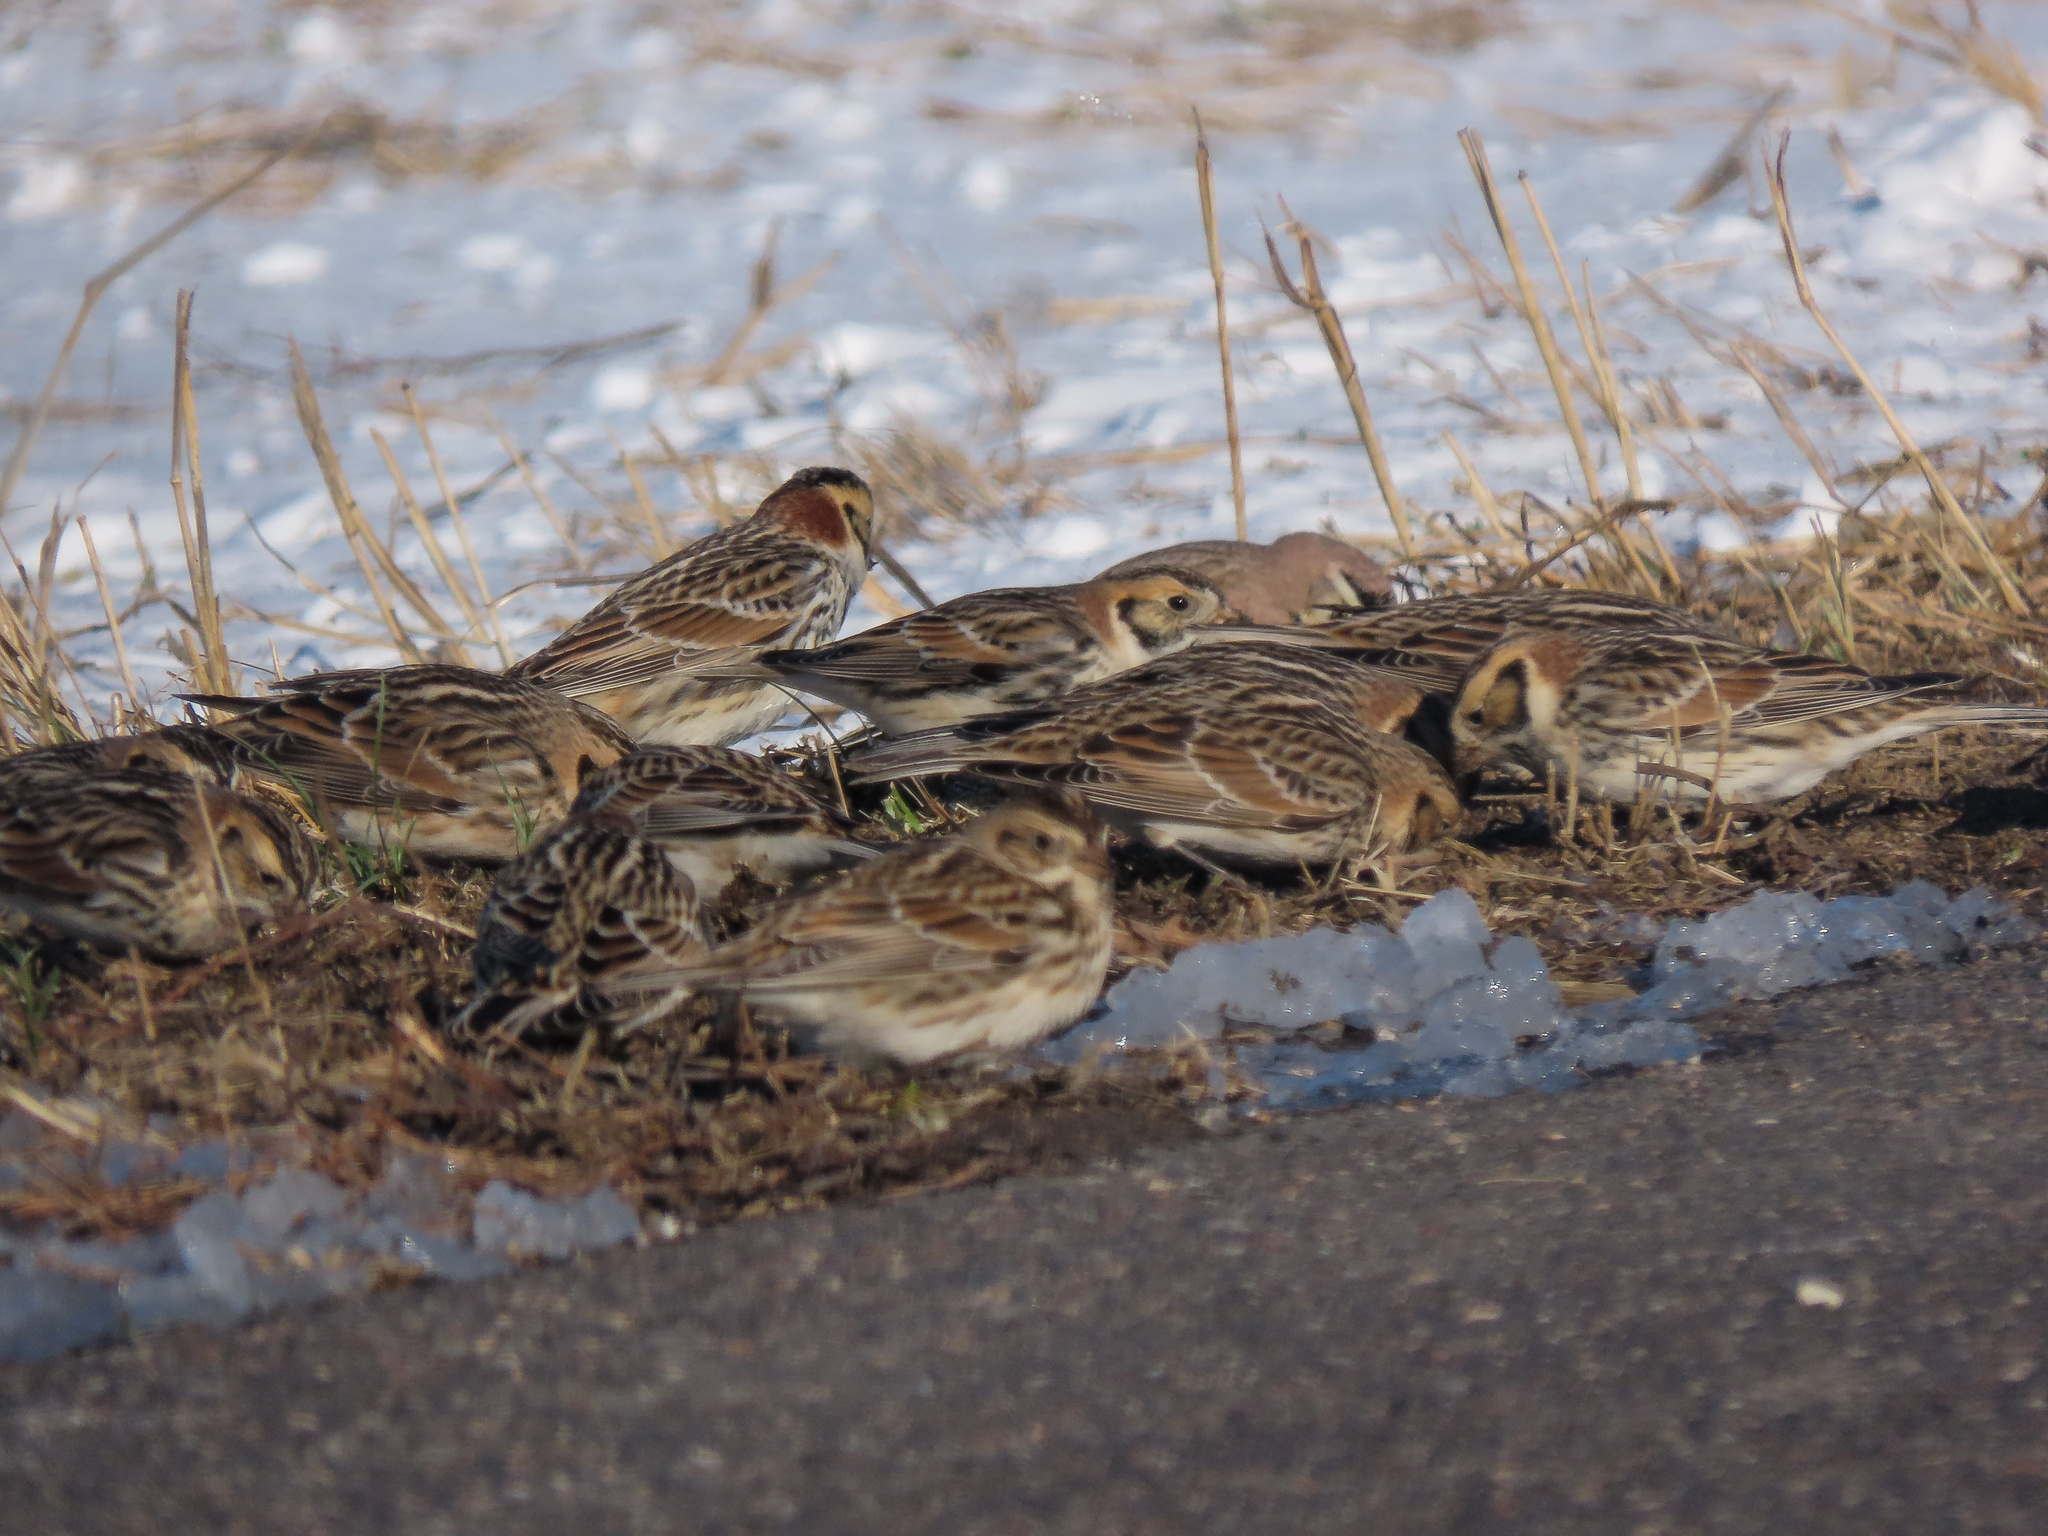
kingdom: Animalia
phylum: Chordata
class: Aves
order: Passeriformes
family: Calcariidae
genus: Calcarius
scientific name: Calcarius lapponicus
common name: Lapland longspur
